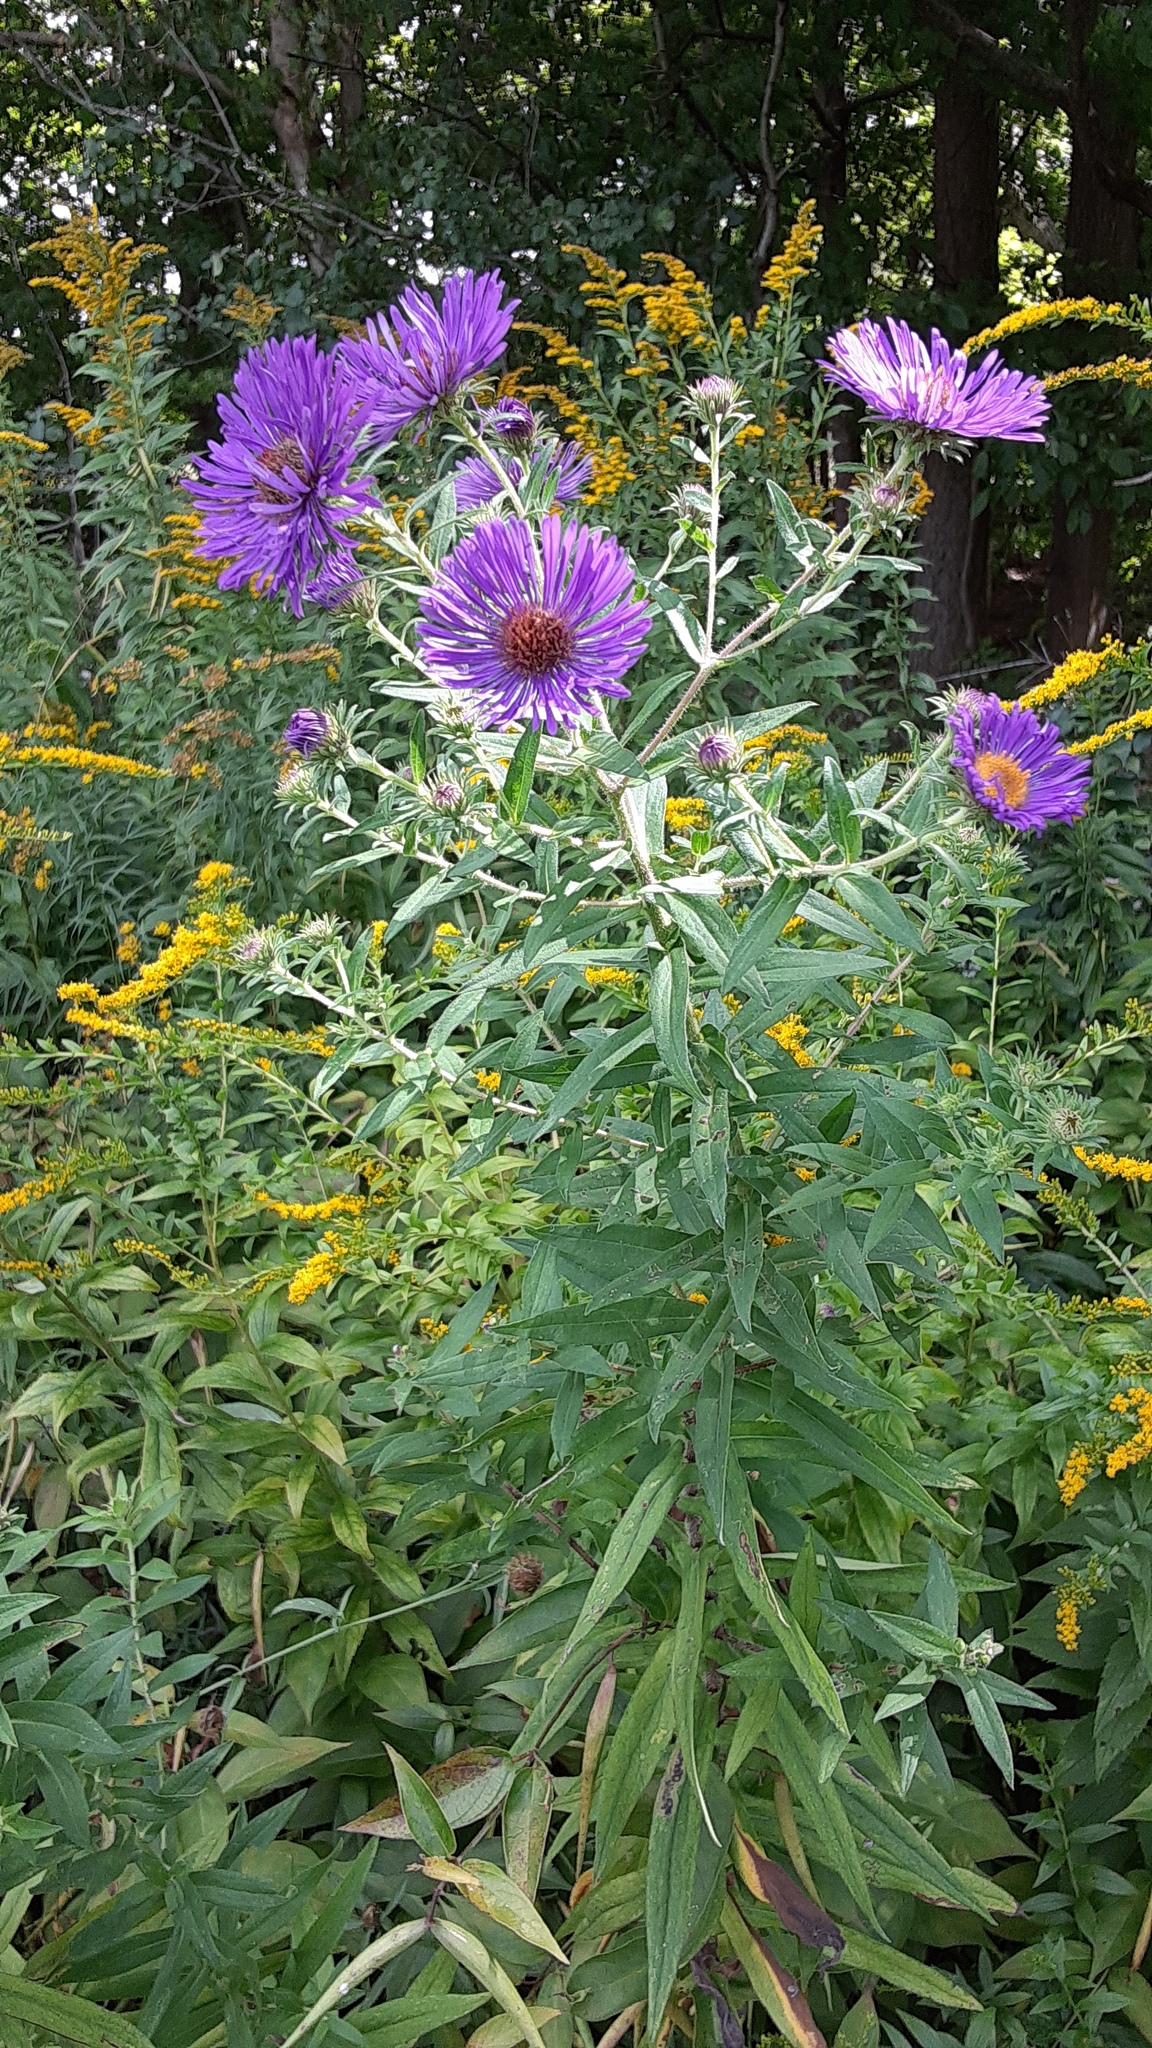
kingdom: Plantae
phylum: Tracheophyta
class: Magnoliopsida
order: Asterales
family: Asteraceae
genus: Symphyotrichum
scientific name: Symphyotrichum novae-angliae
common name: Michaelmas daisy
